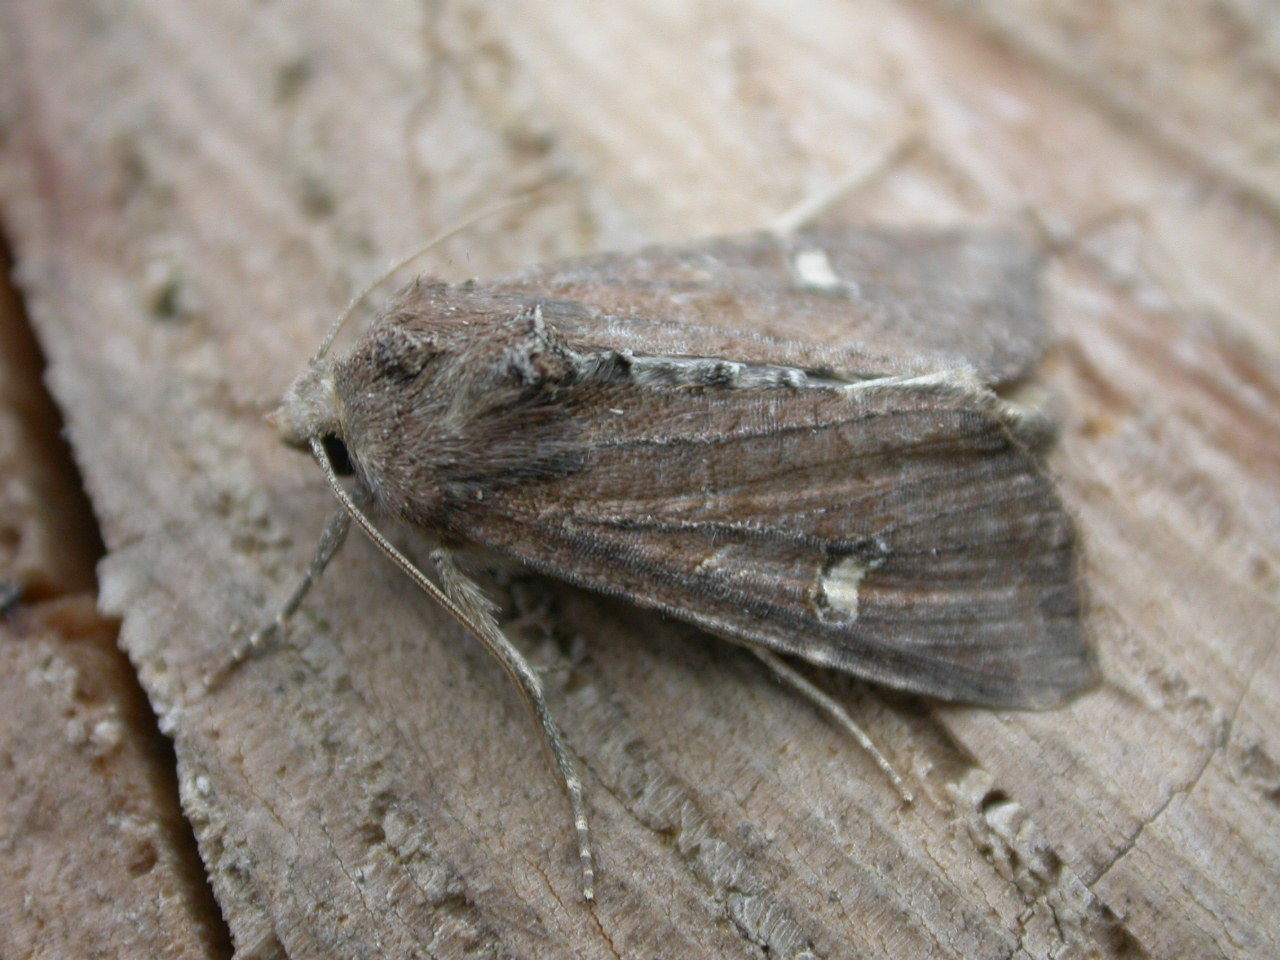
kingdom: Animalia
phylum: Arthropoda
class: Insecta
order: Lepidoptera
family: Noctuidae
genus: Helotropha
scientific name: Helotropha leucostigma
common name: The crescent
